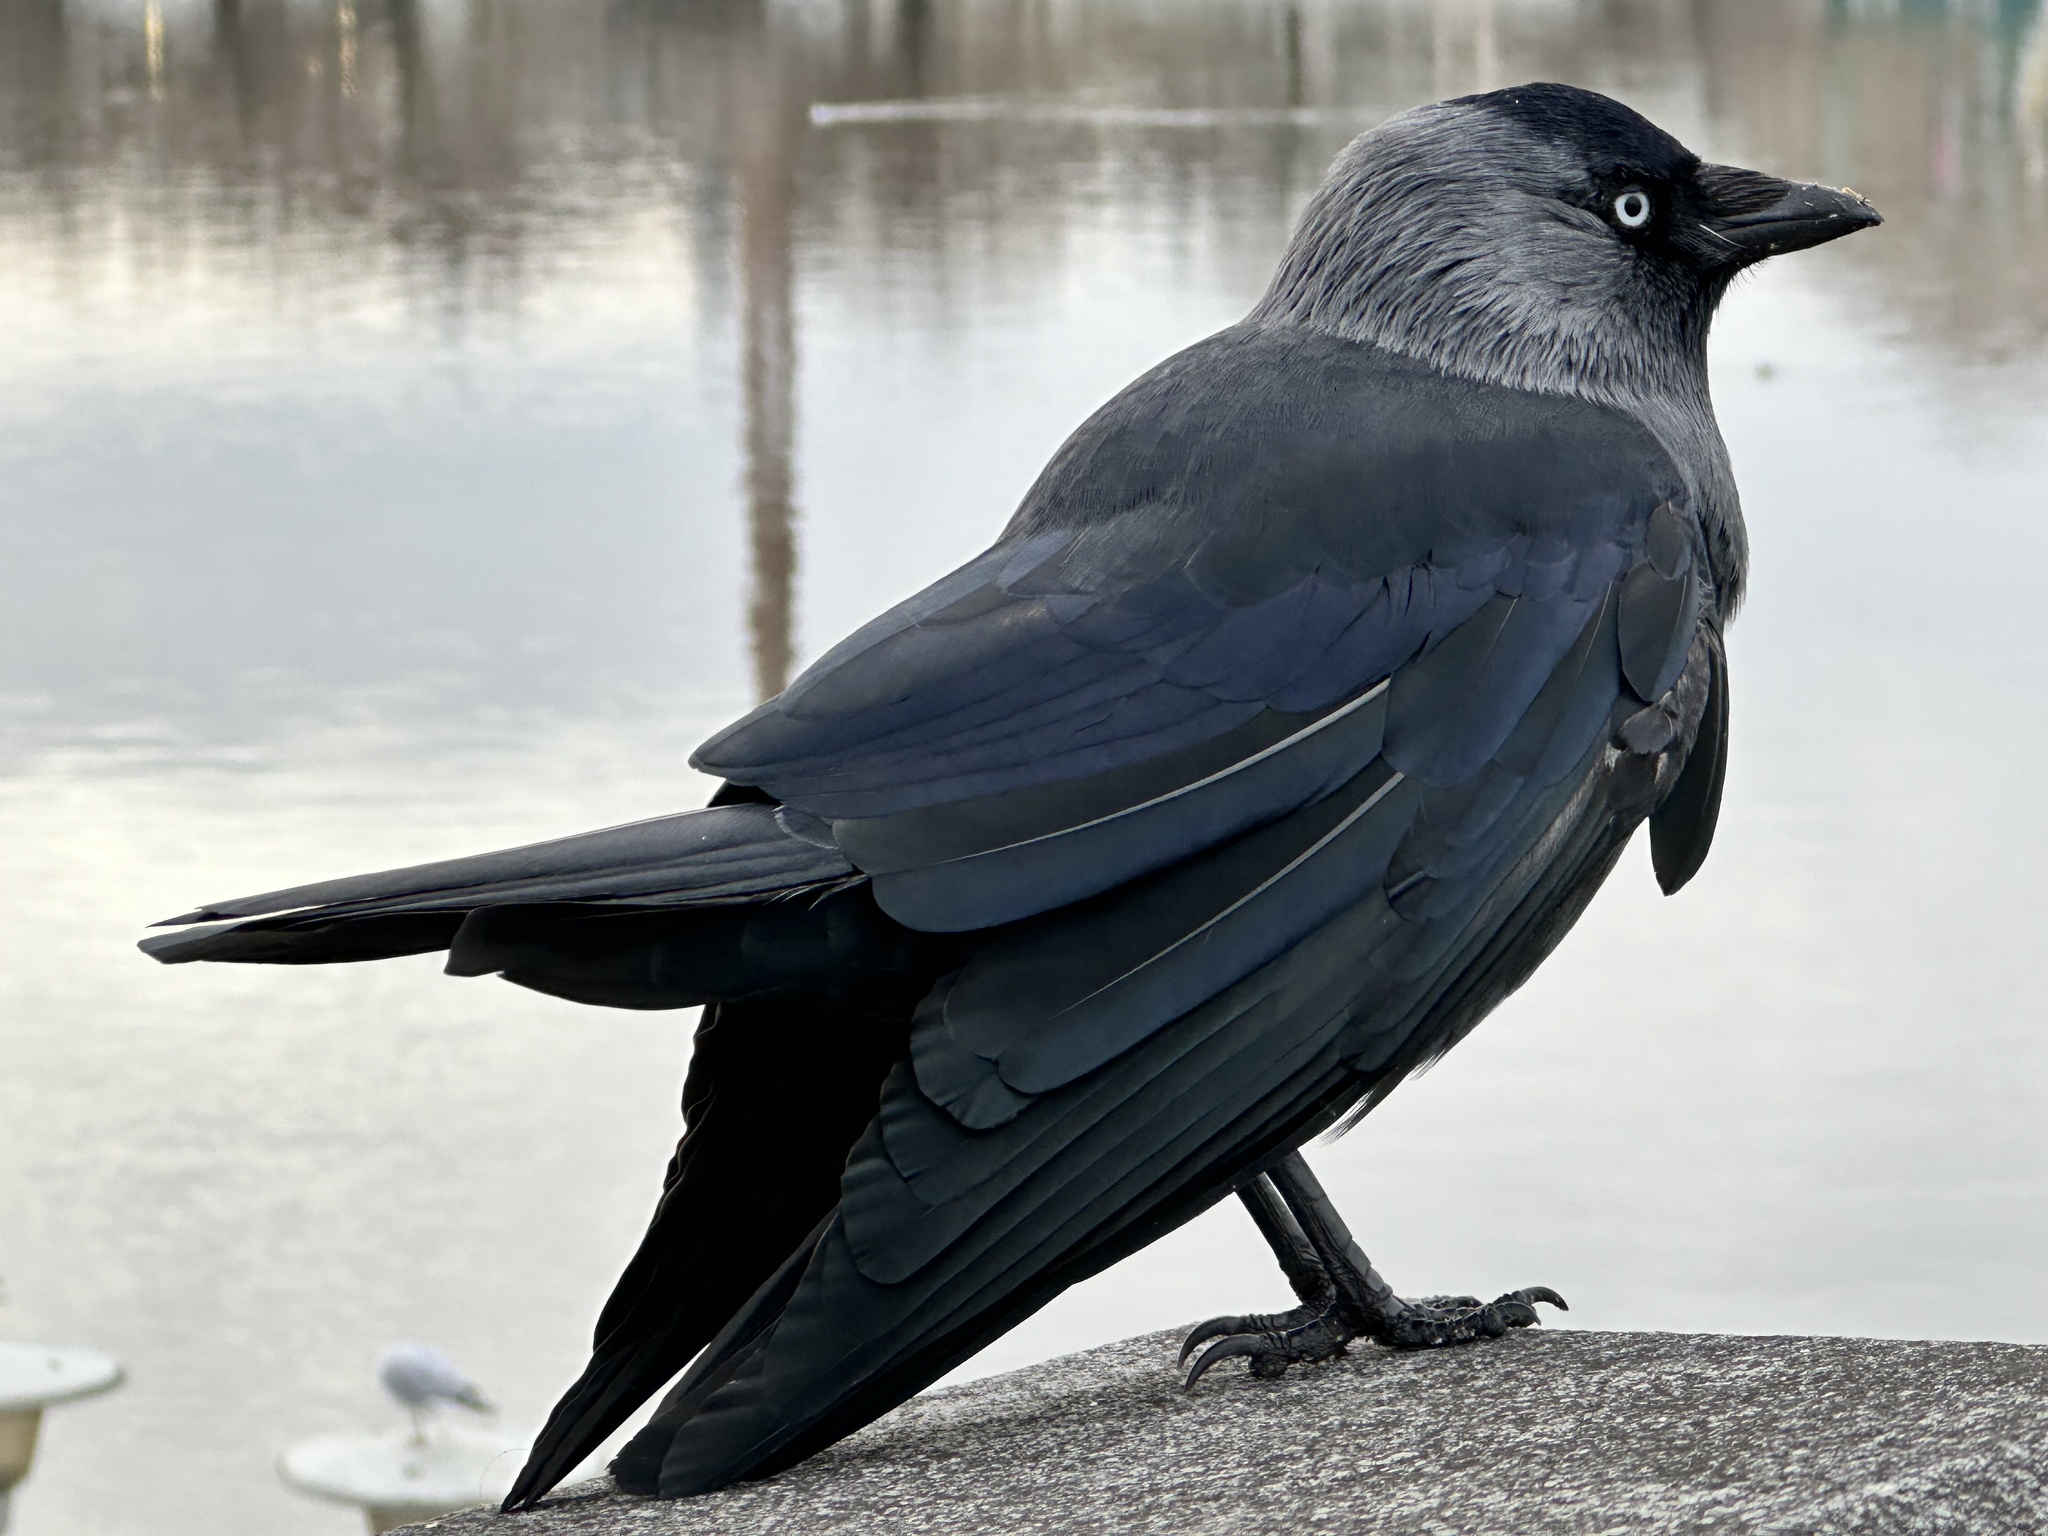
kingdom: Animalia
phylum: Chordata
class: Aves
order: Passeriformes
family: Corvidae
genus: Coloeus
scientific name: Coloeus monedula
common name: Western jackdaw
